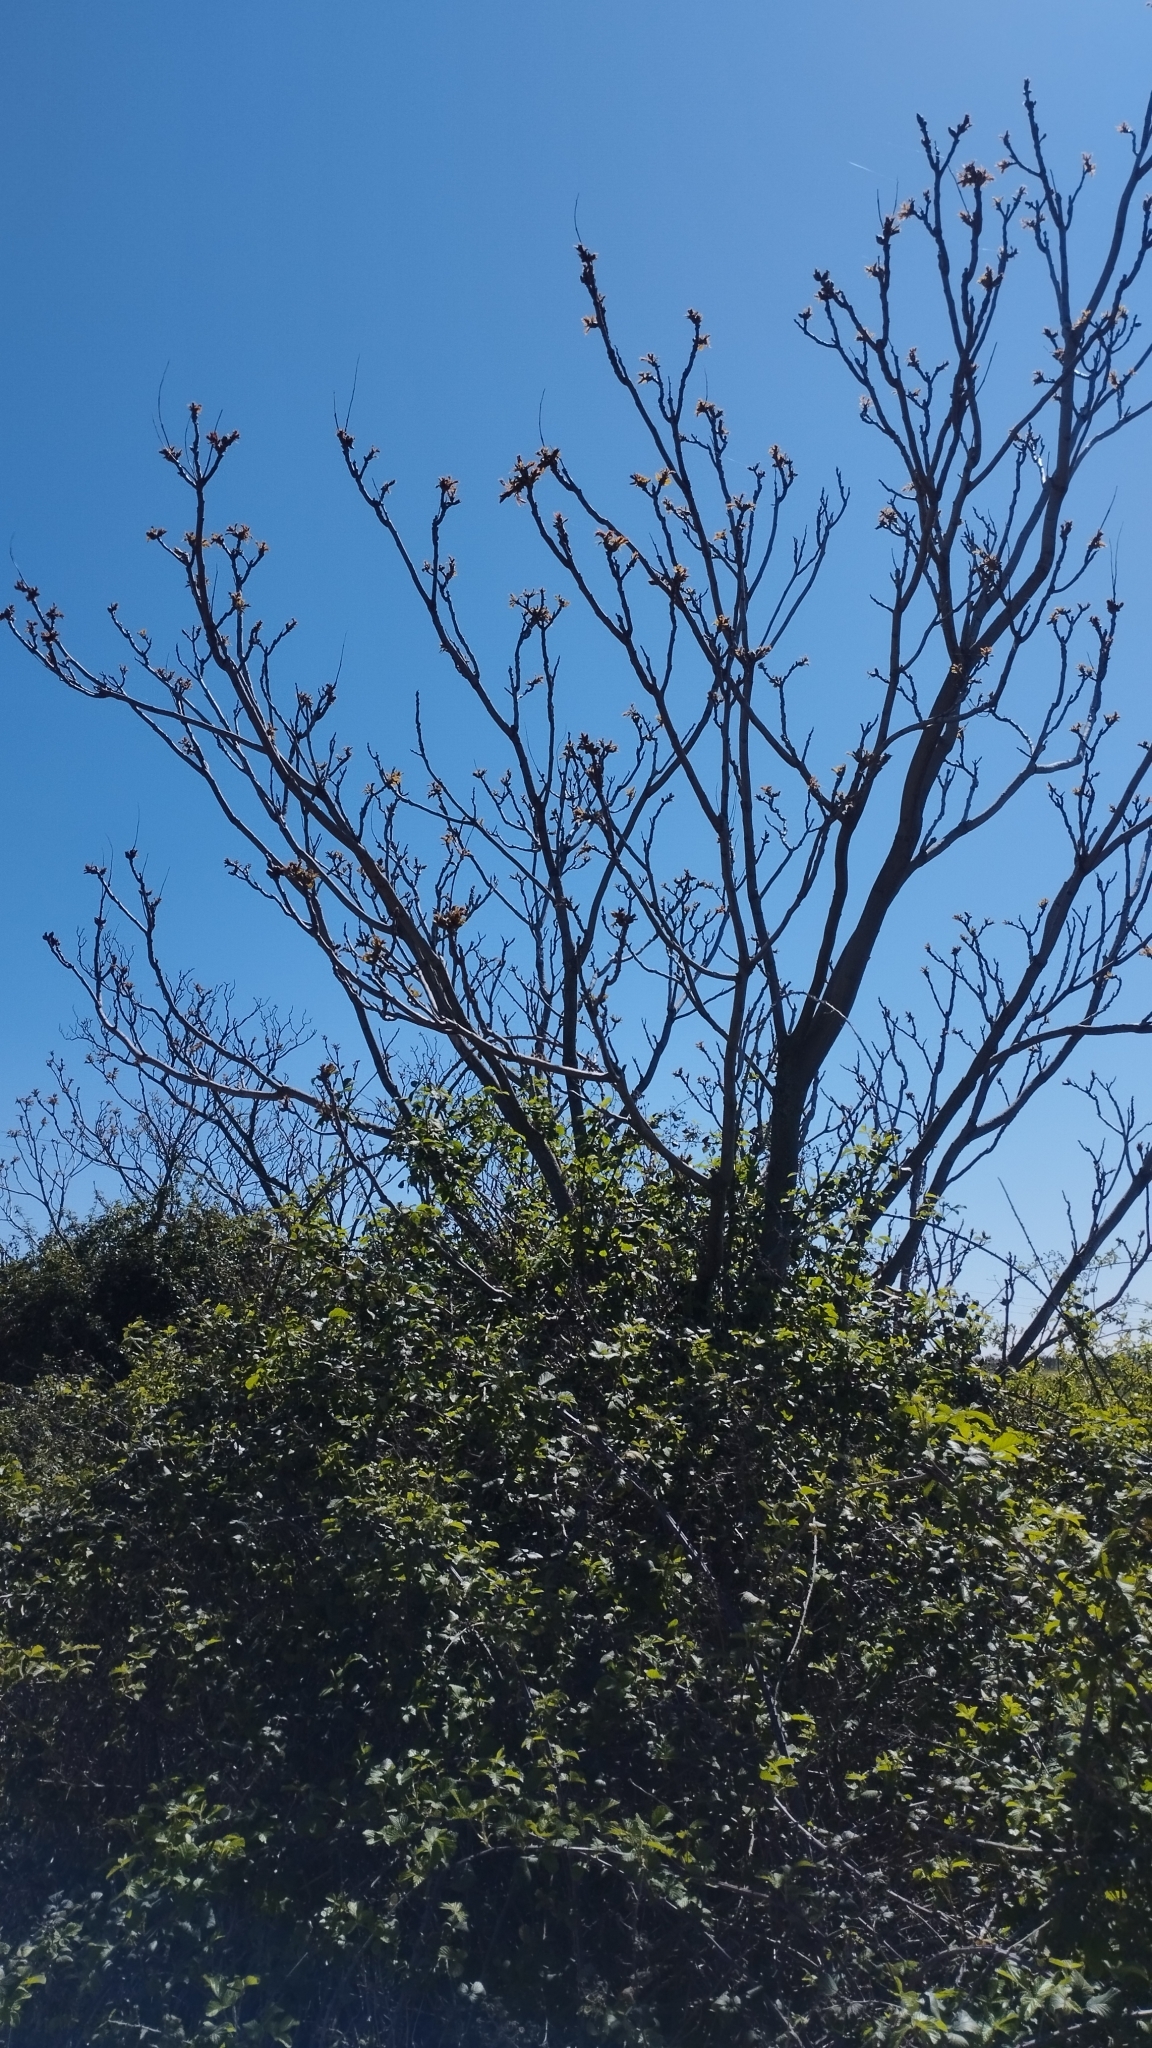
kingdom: Plantae
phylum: Tracheophyta
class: Magnoliopsida
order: Sapindales
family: Simaroubaceae
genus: Ailanthus
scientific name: Ailanthus altissima
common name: Tree-of-heaven
